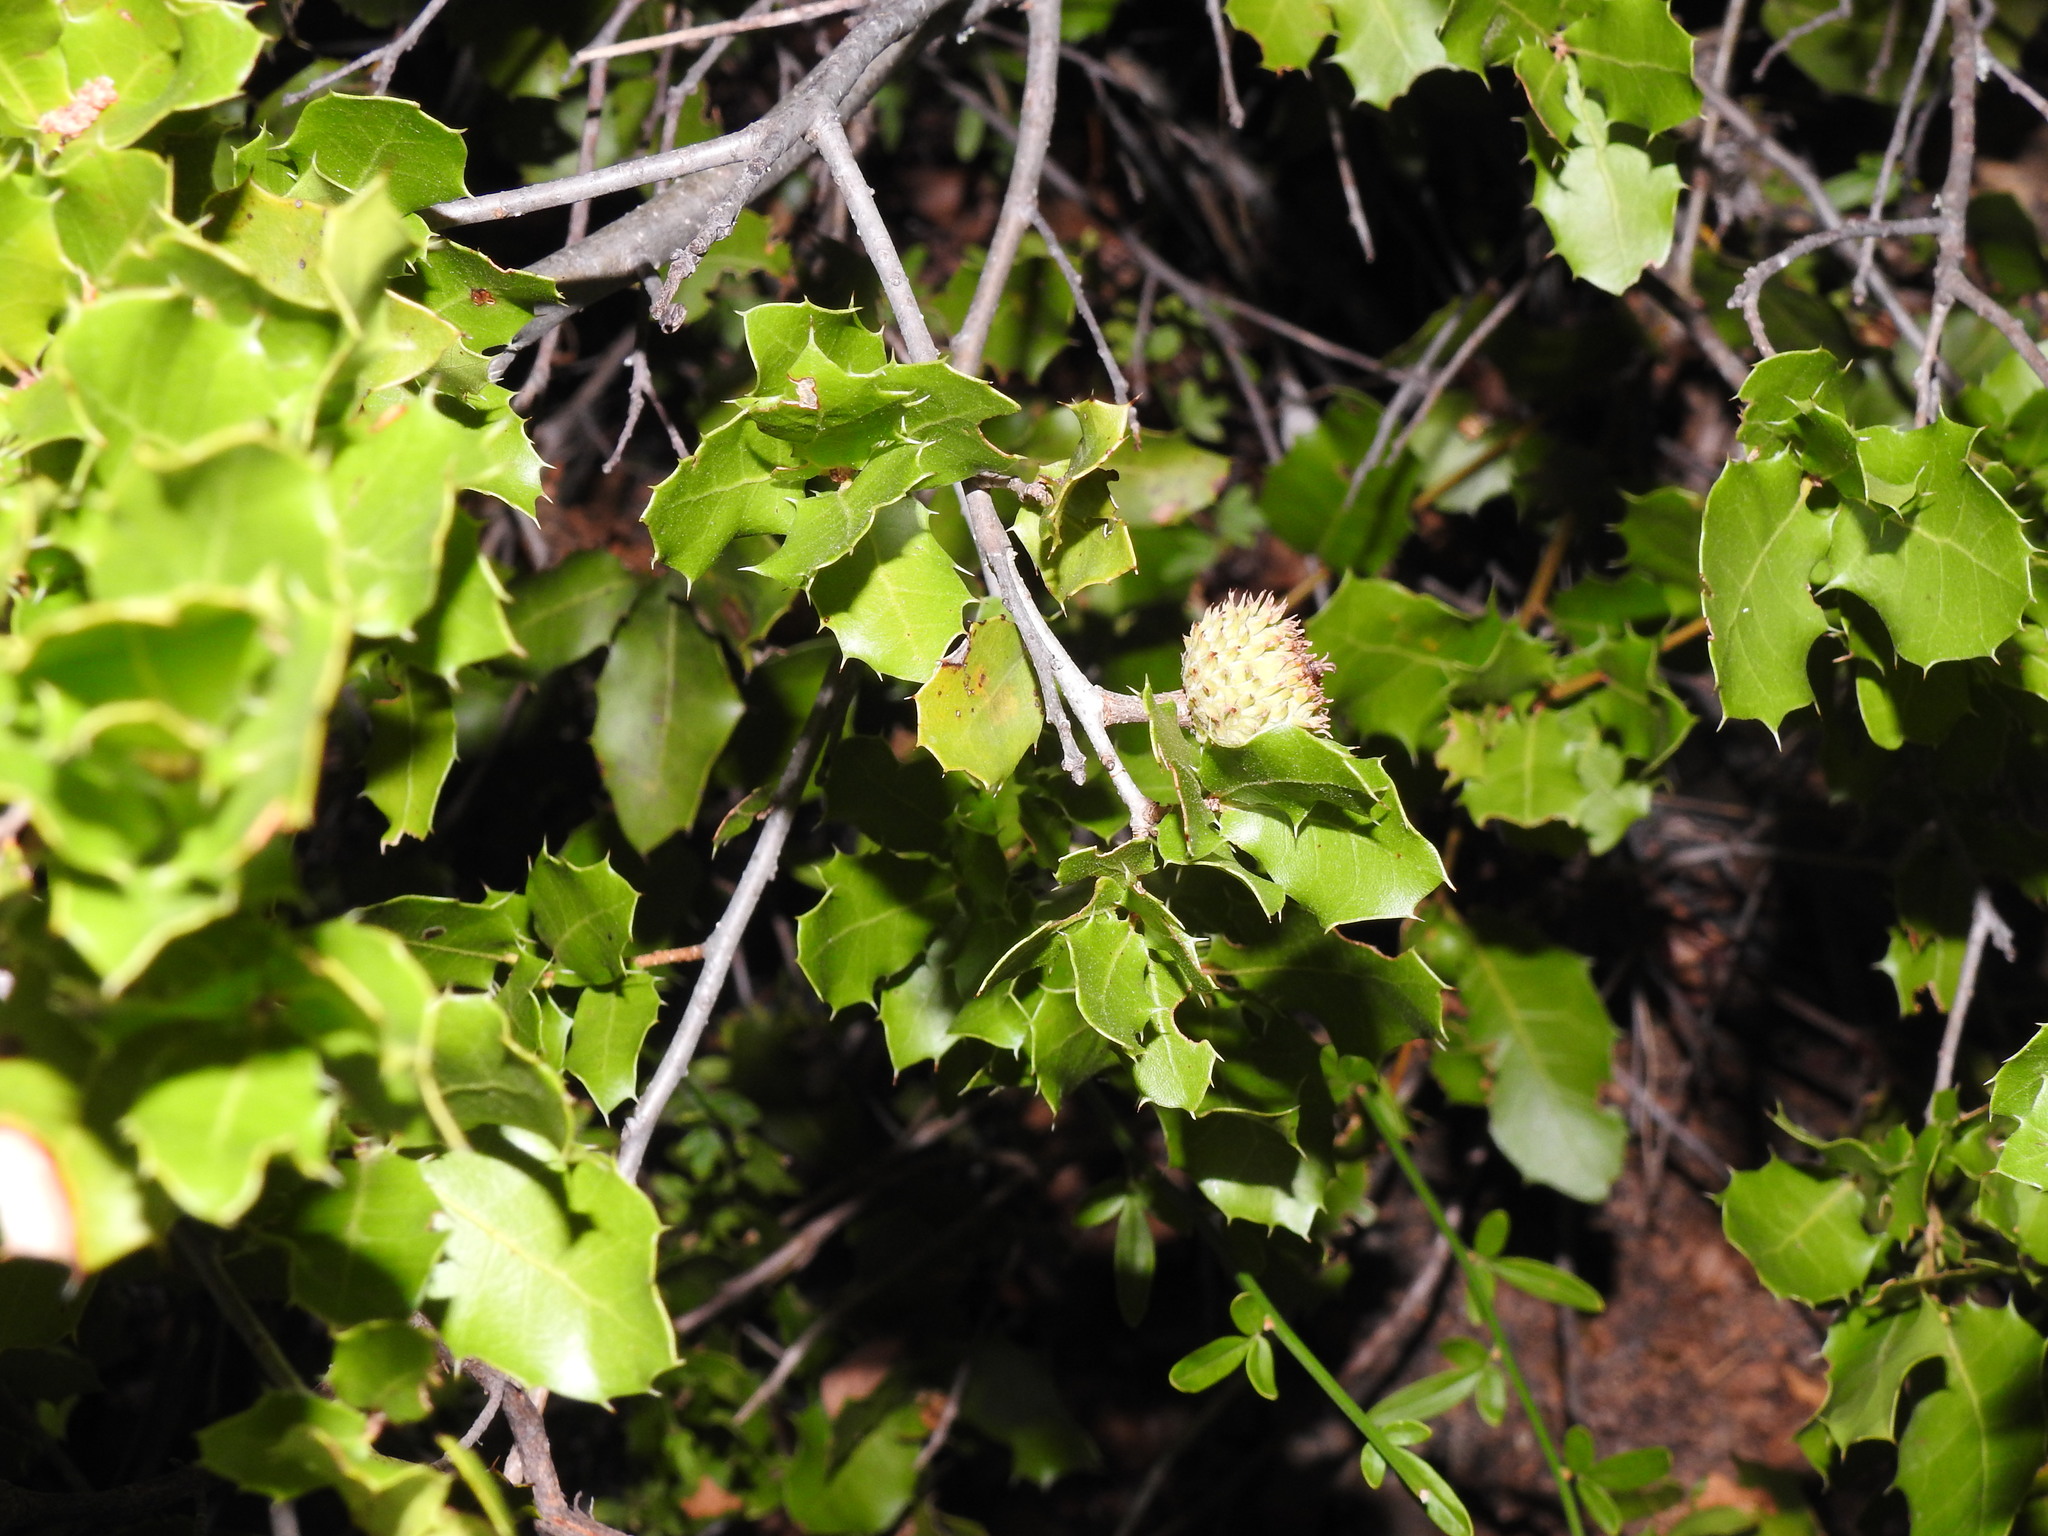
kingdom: Plantae
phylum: Tracheophyta
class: Magnoliopsida
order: Fagales
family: Fagaceae
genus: Quercus
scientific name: Quercus coccifera
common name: Kermes oak
